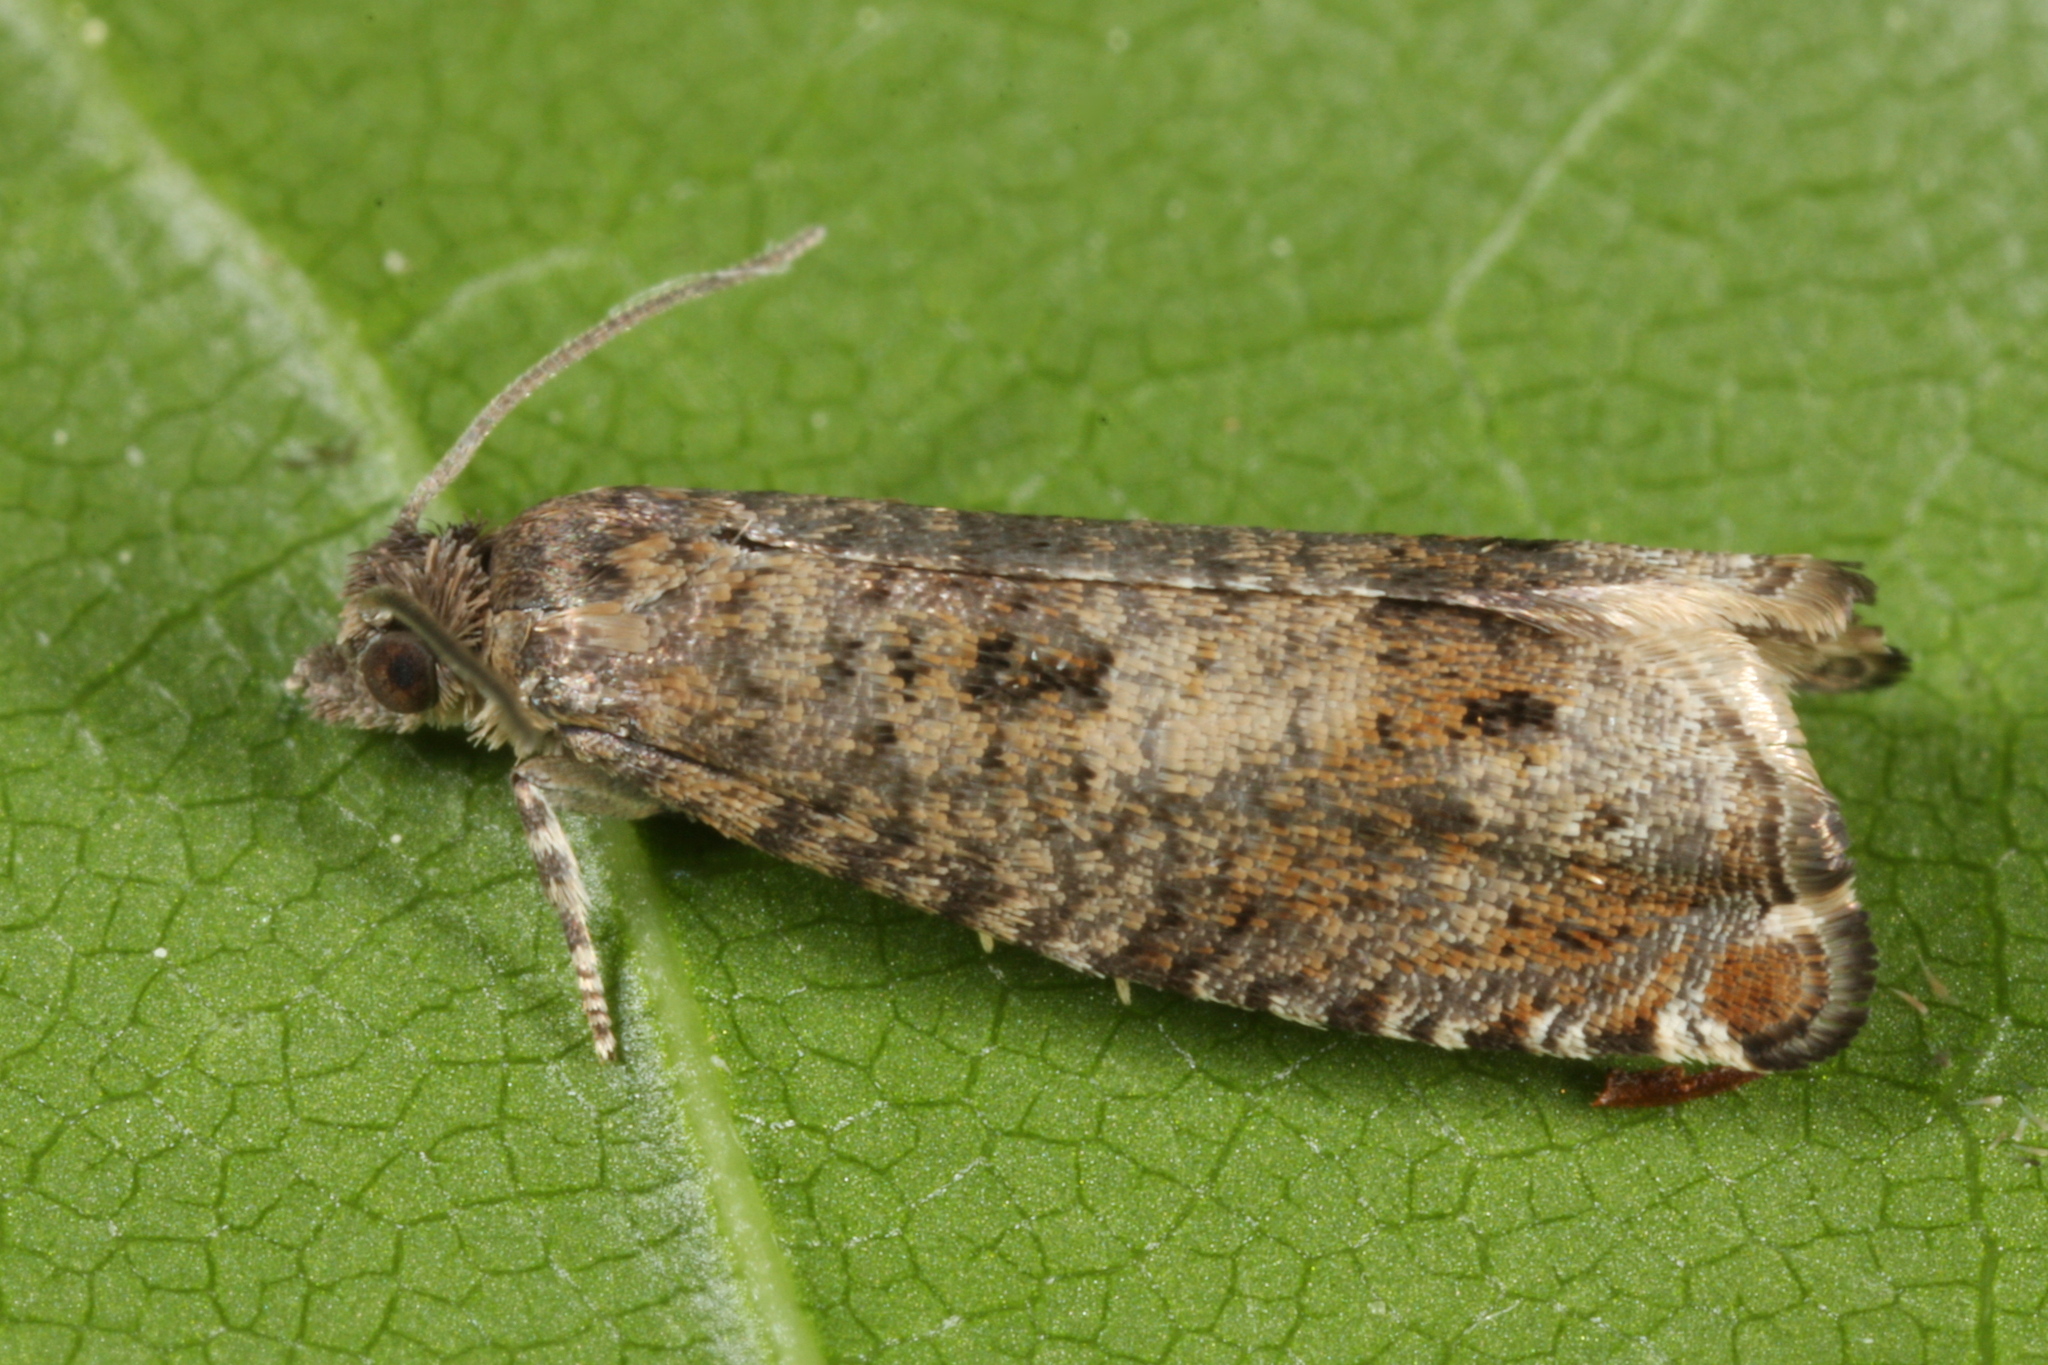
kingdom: Animalia
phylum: Arthropoda
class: Insecta
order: Lepidoptera
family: Tortricidae
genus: Epinotia
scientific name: Epinotia tetraquetrana
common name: Square-barred bell
